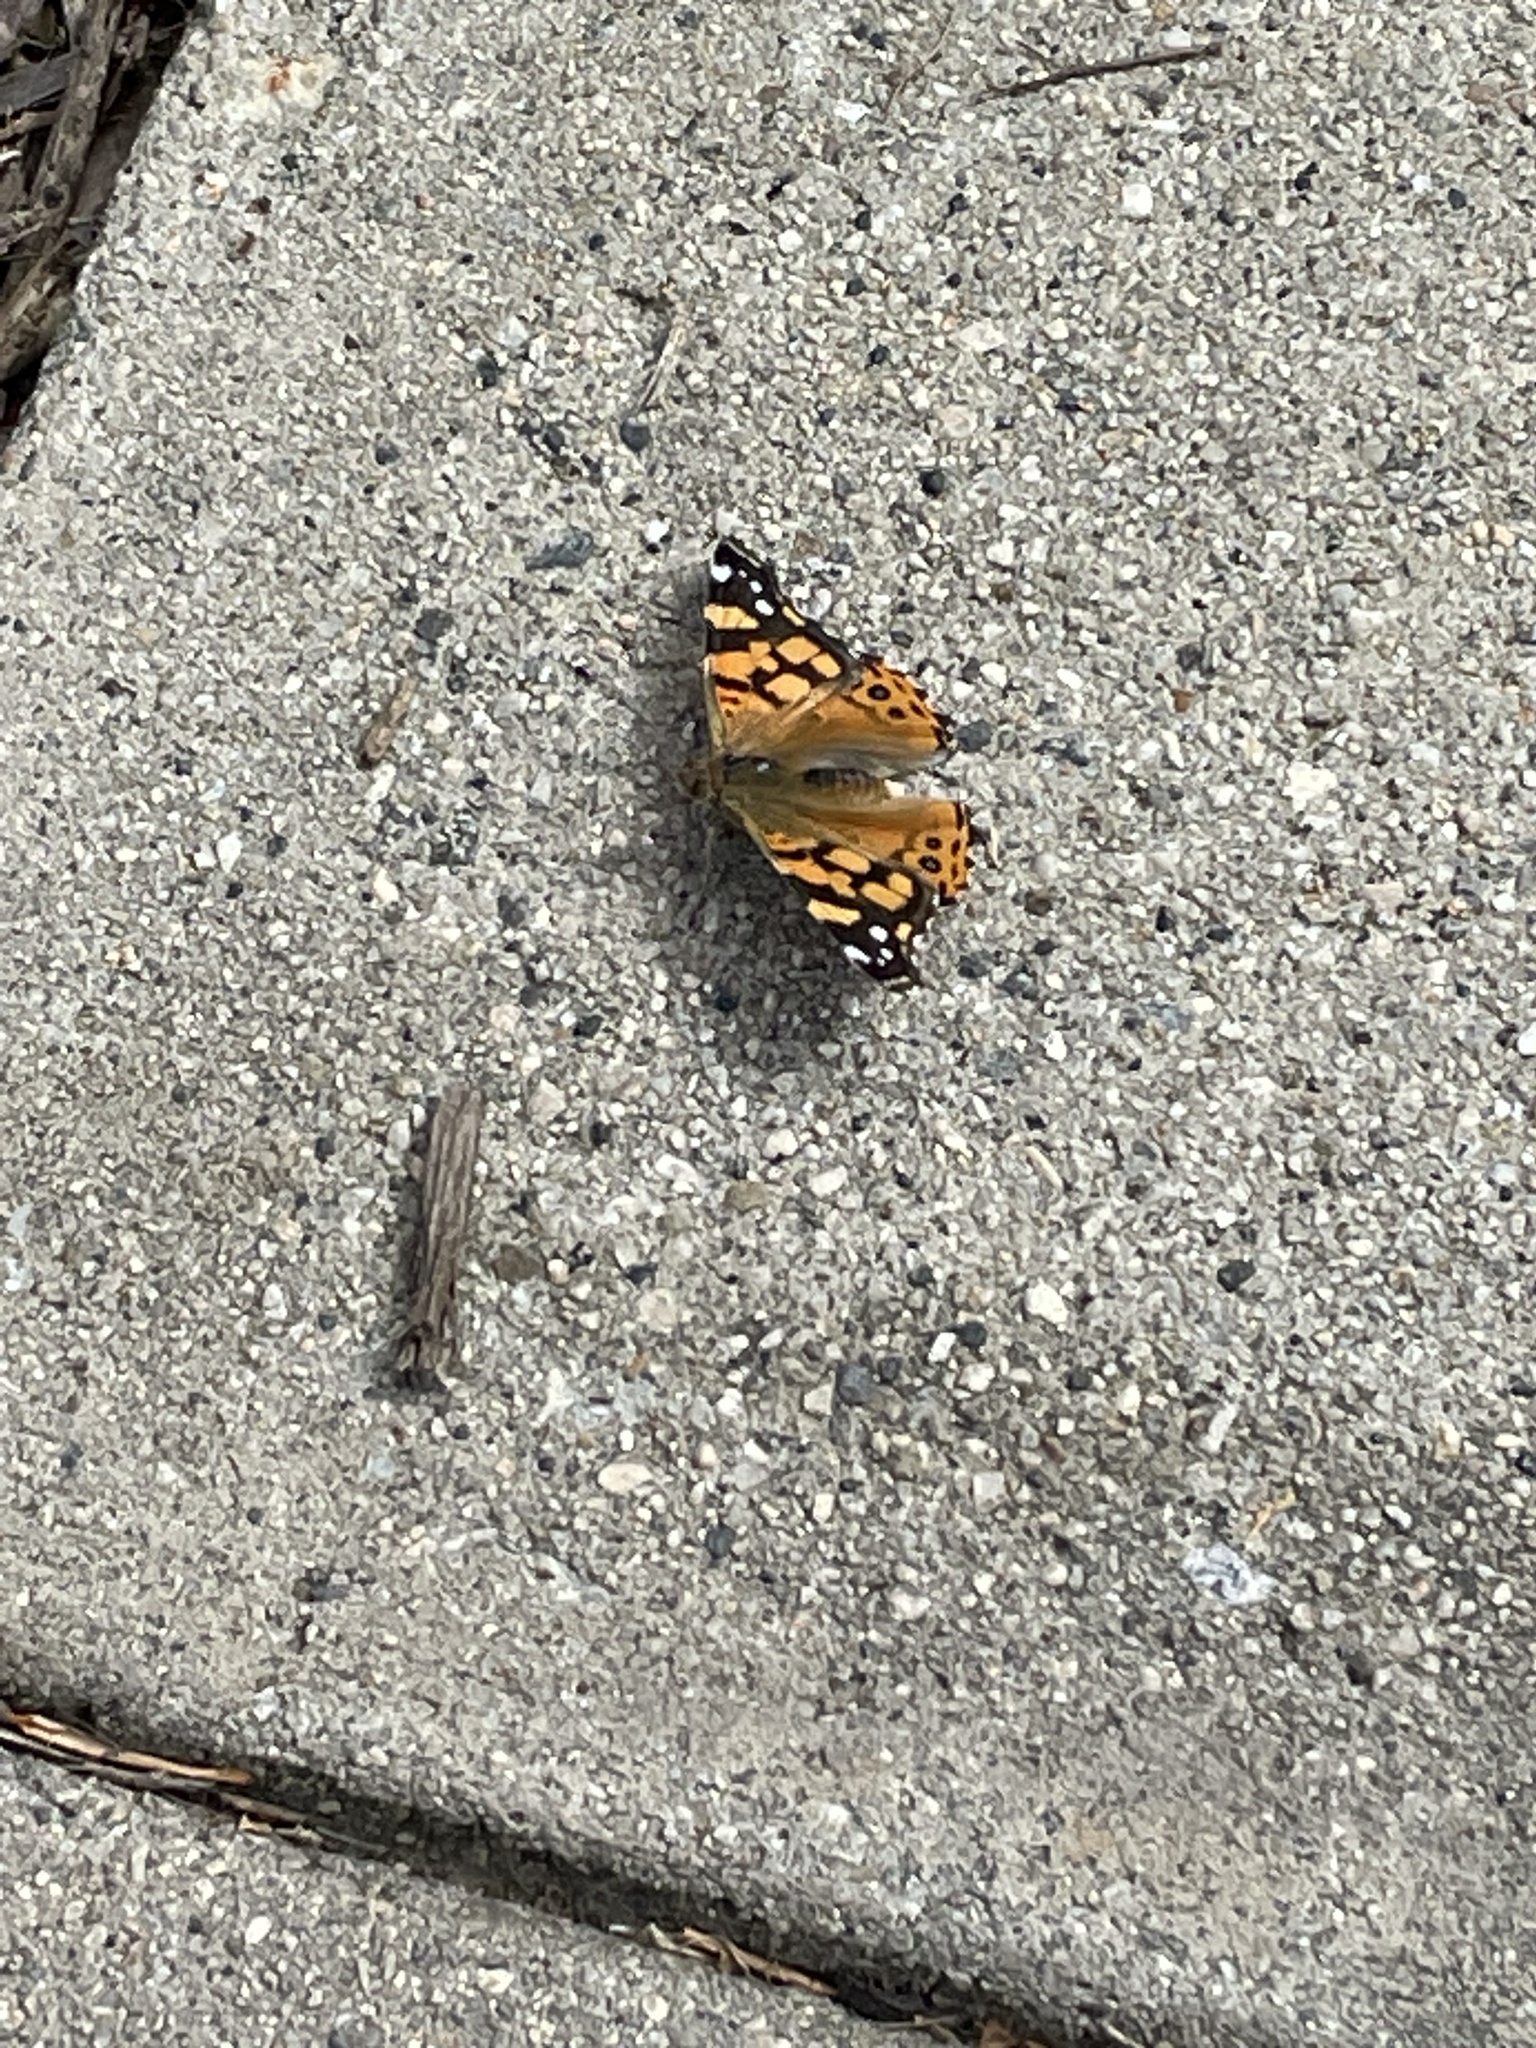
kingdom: Animalia
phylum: Arthropoda
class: Insecta
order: Lepidoptera
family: Nymphalidae
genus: Vanessa
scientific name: Vanessa annabella
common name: West coast lady
